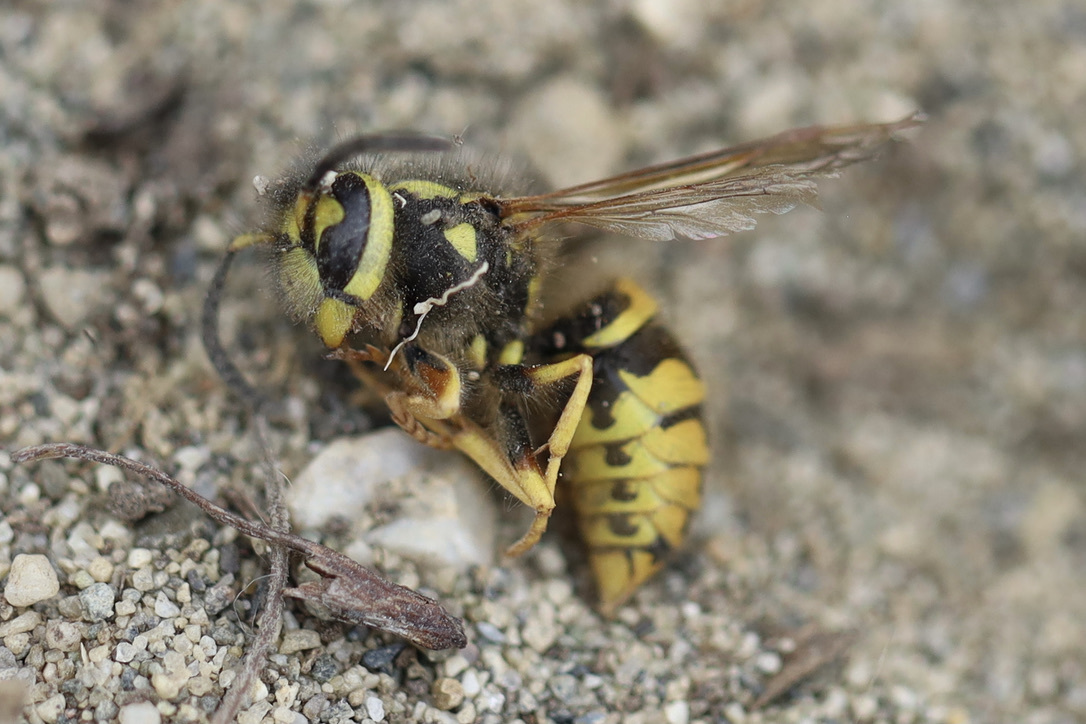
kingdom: Animalia
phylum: Arthropoda
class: Insecta
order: Hymenoptera
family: Vespidae
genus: Vespula
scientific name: Vespula pensylvanica
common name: Western yellowjacket
